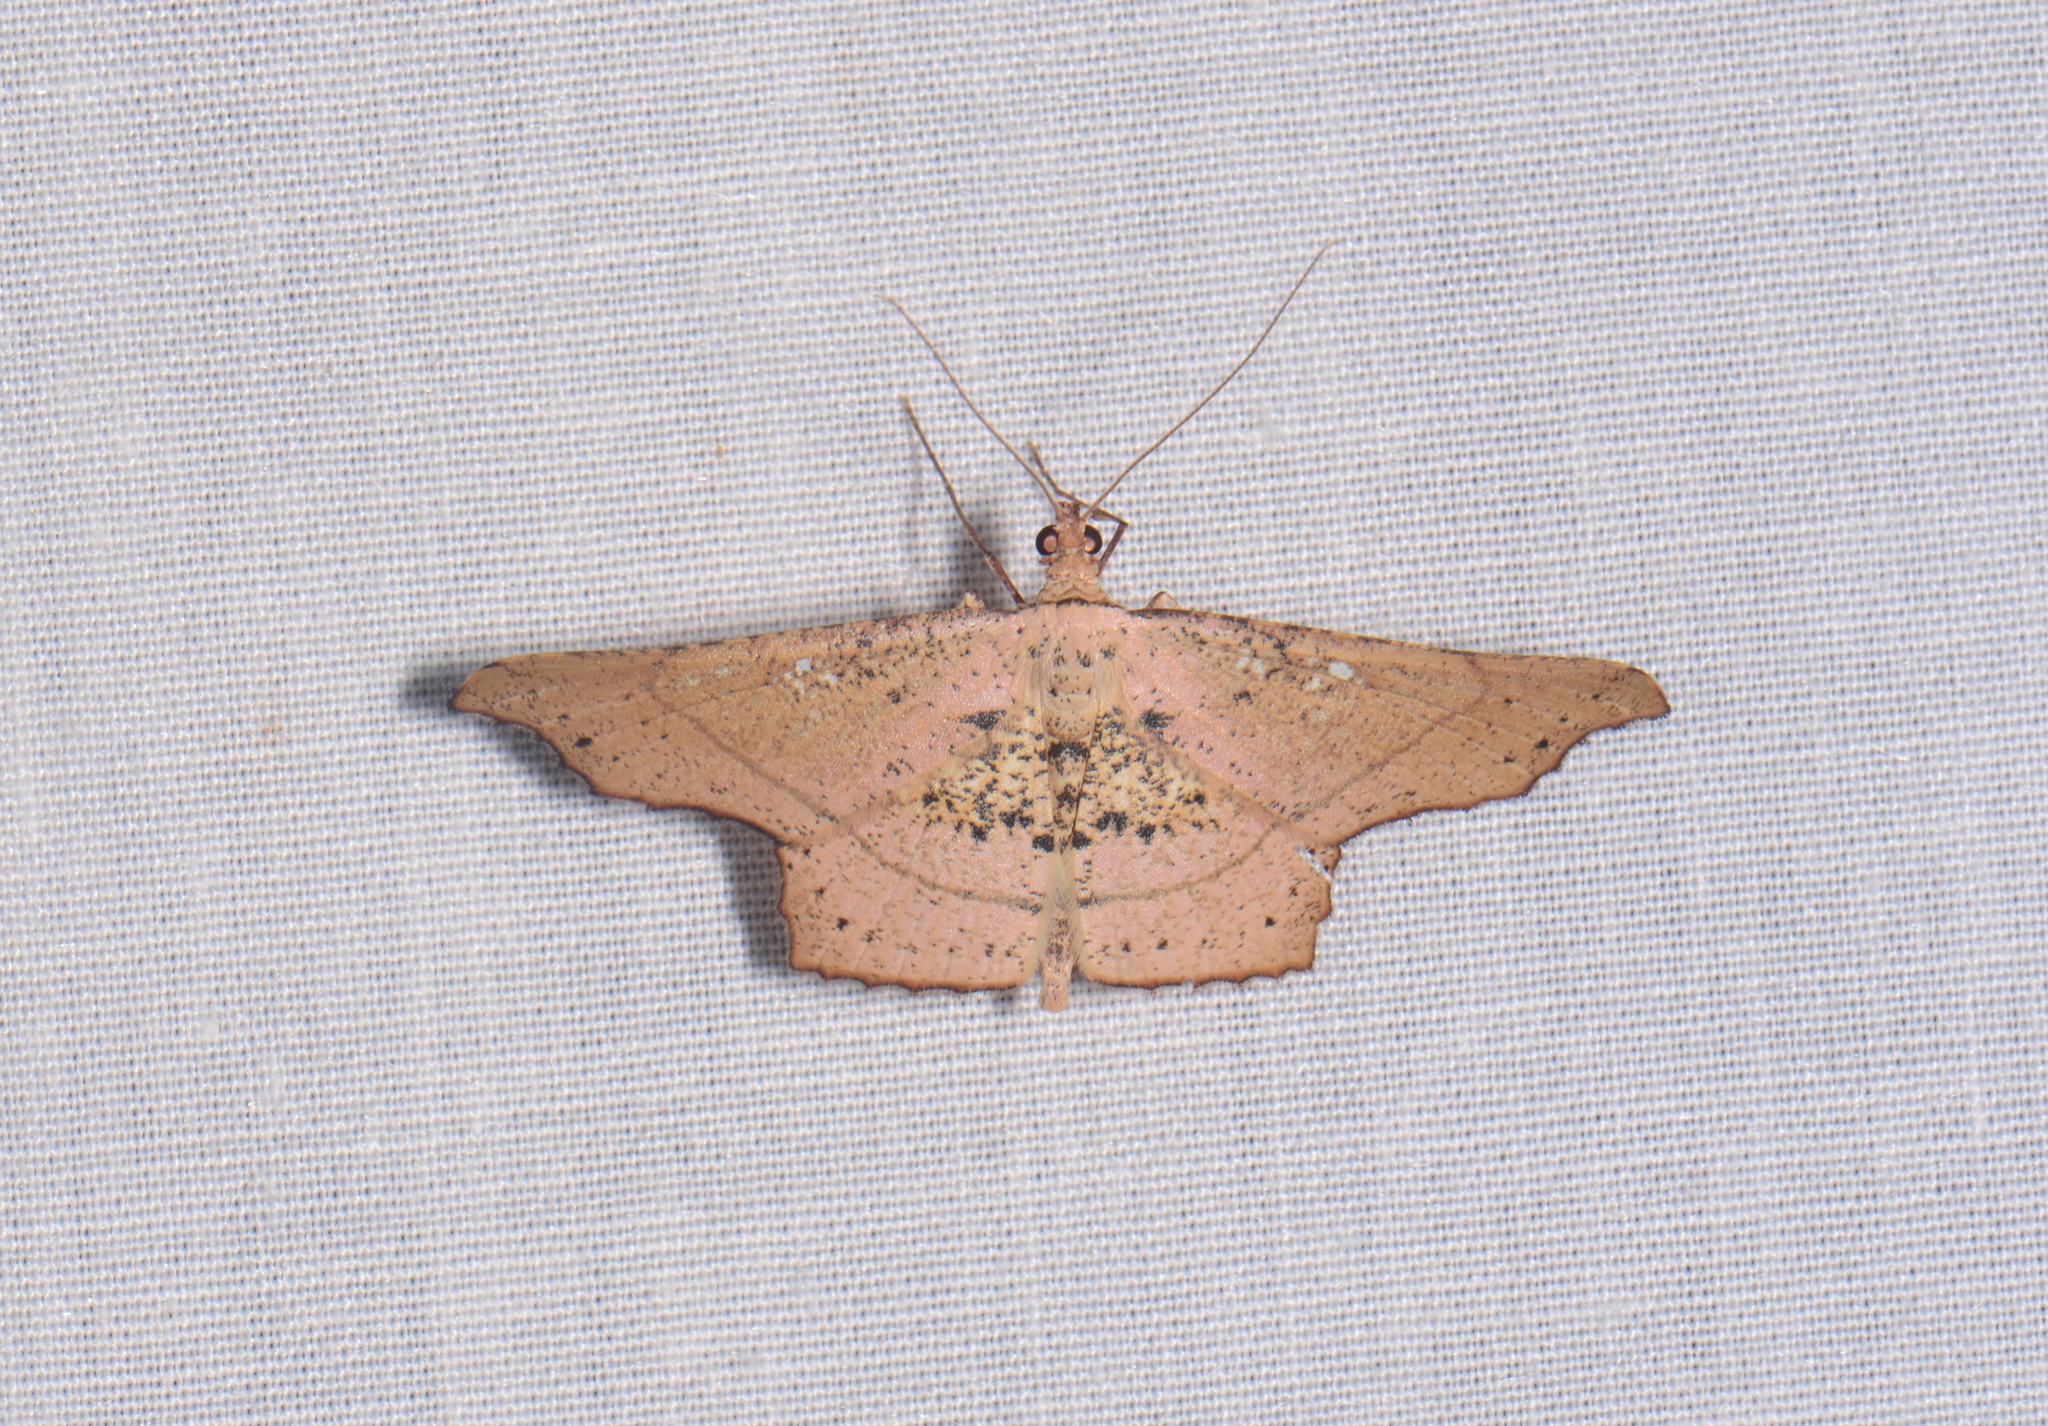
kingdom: Animalia
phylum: Arthropoda
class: Insecta
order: Lepidoptera
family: Geometridae
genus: Ozola
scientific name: Ozola turlini
